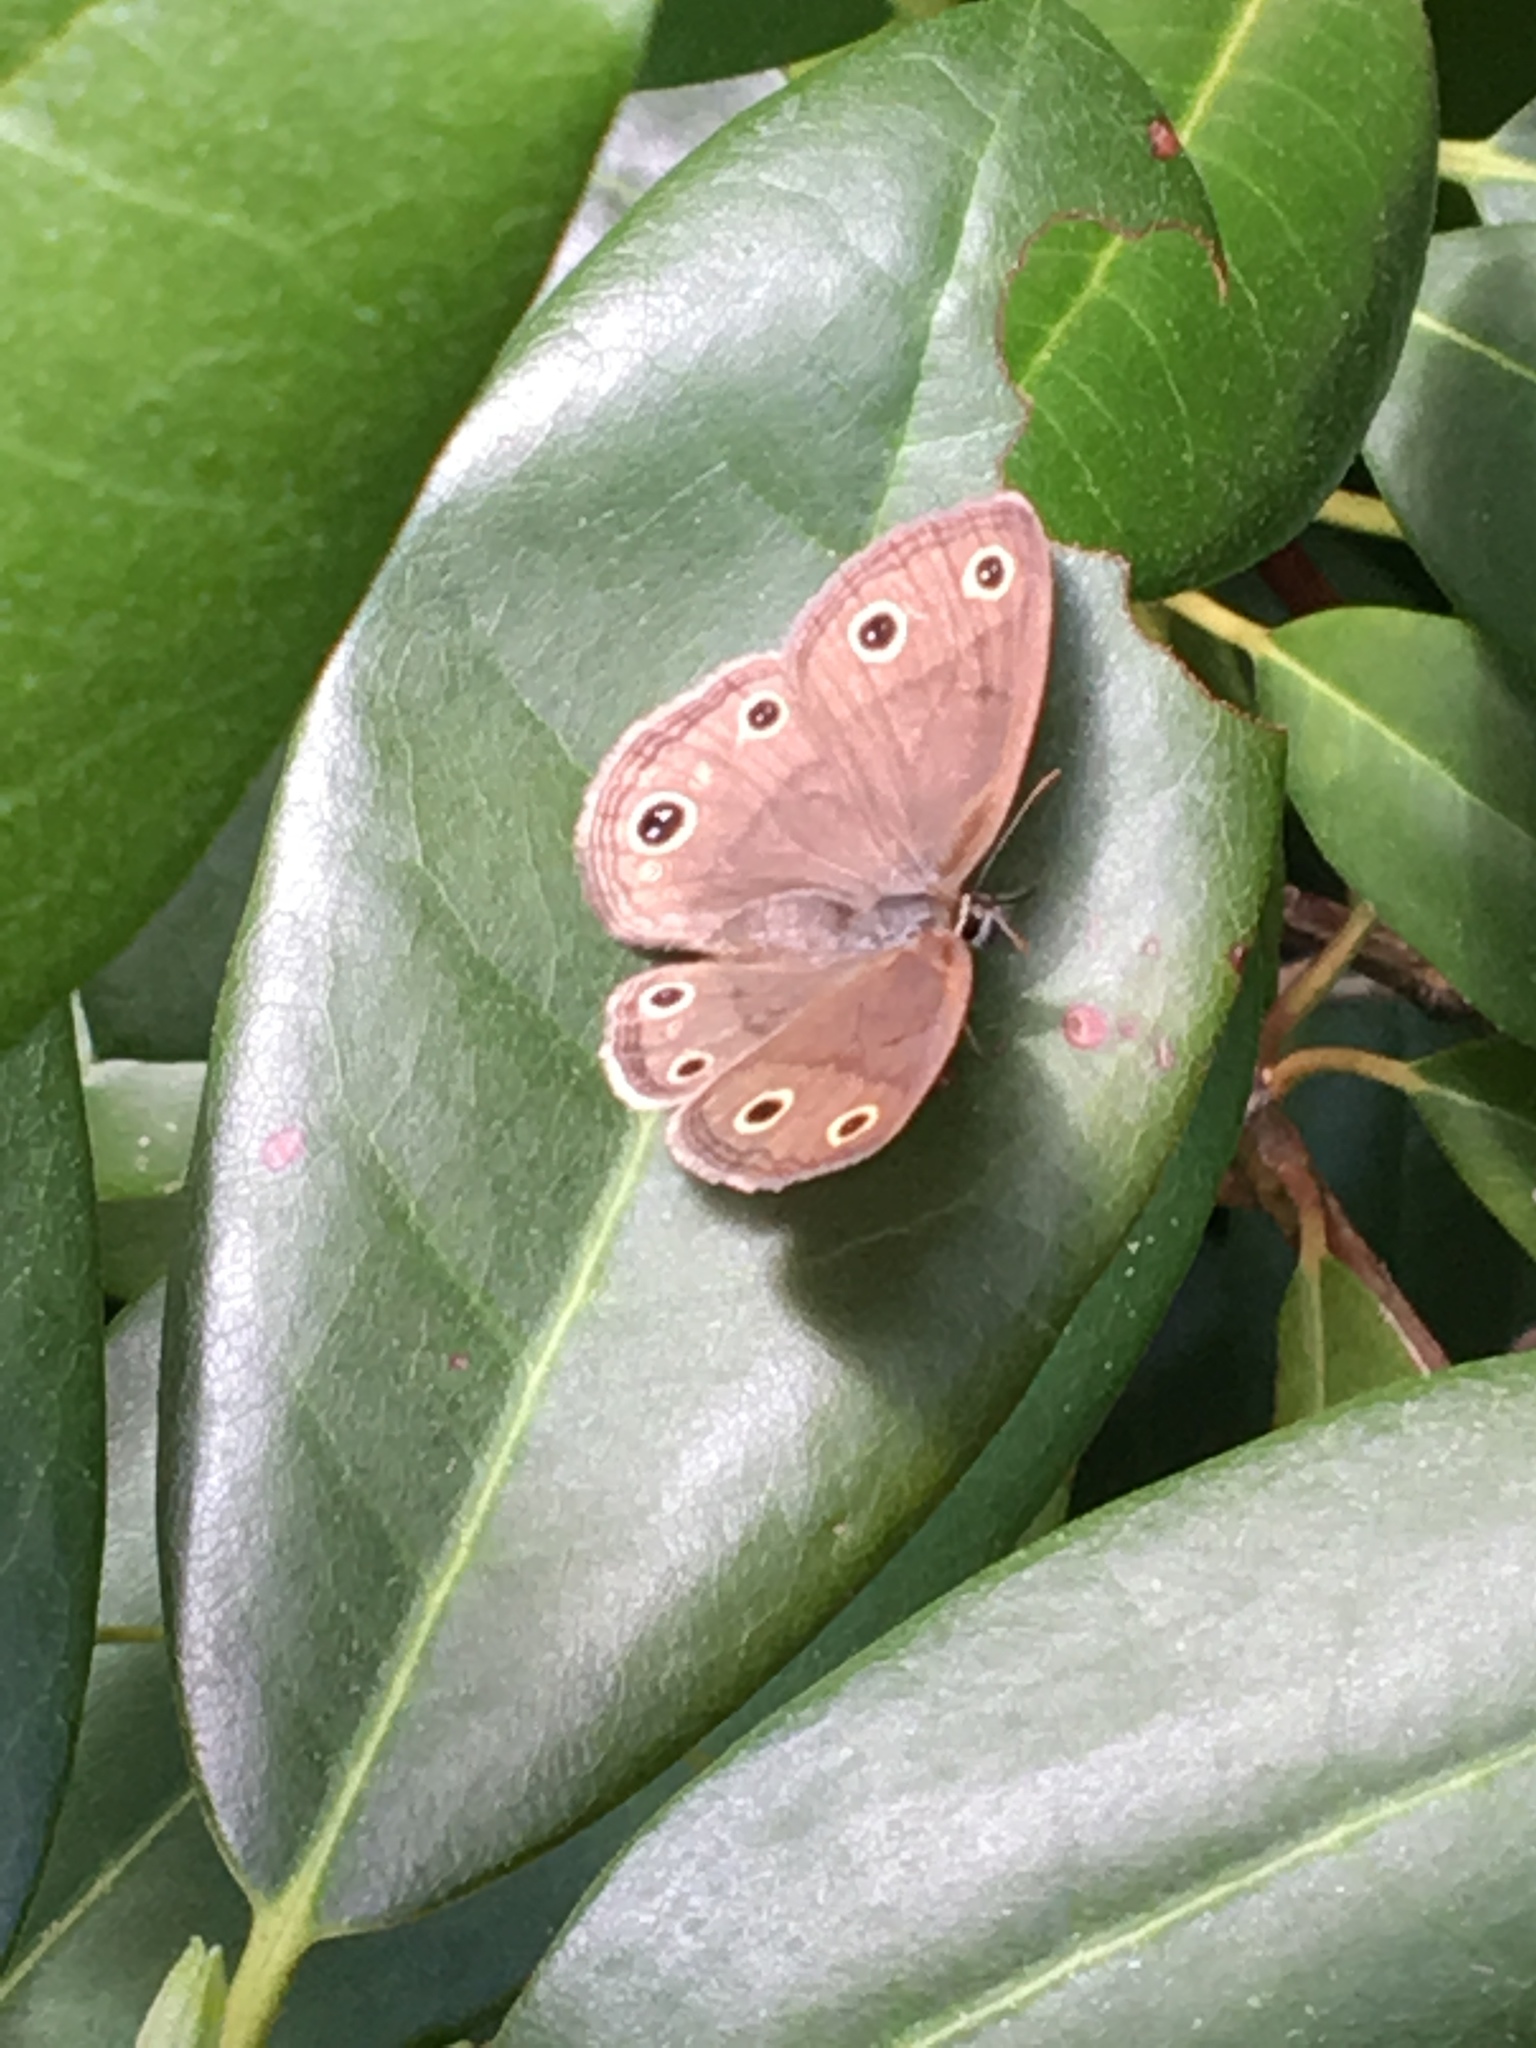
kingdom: Animalia
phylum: Arthropoda
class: Insecta
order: Lepidoptera
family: Nymphalidae
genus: Euptychia
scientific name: Euptychia cymela
